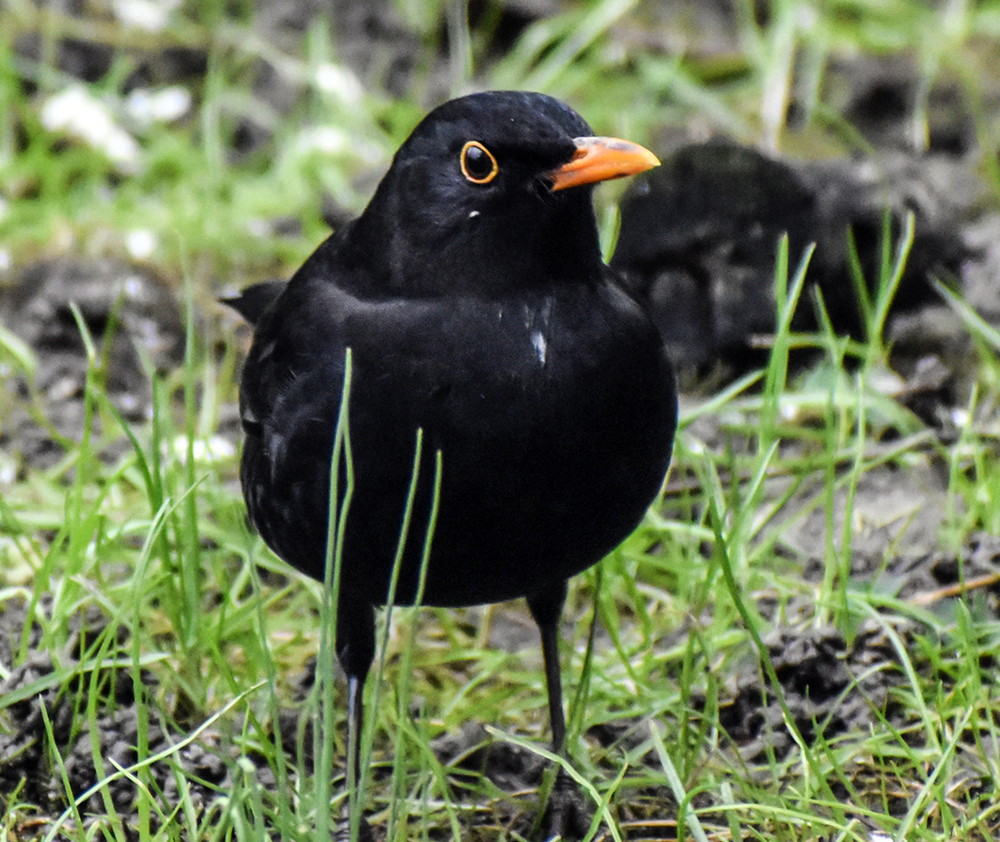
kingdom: Animalia
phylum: Chordata
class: Aves
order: Passeriformes
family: Turdidae
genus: Turdus
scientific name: Turdus merula
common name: Common blackbird
